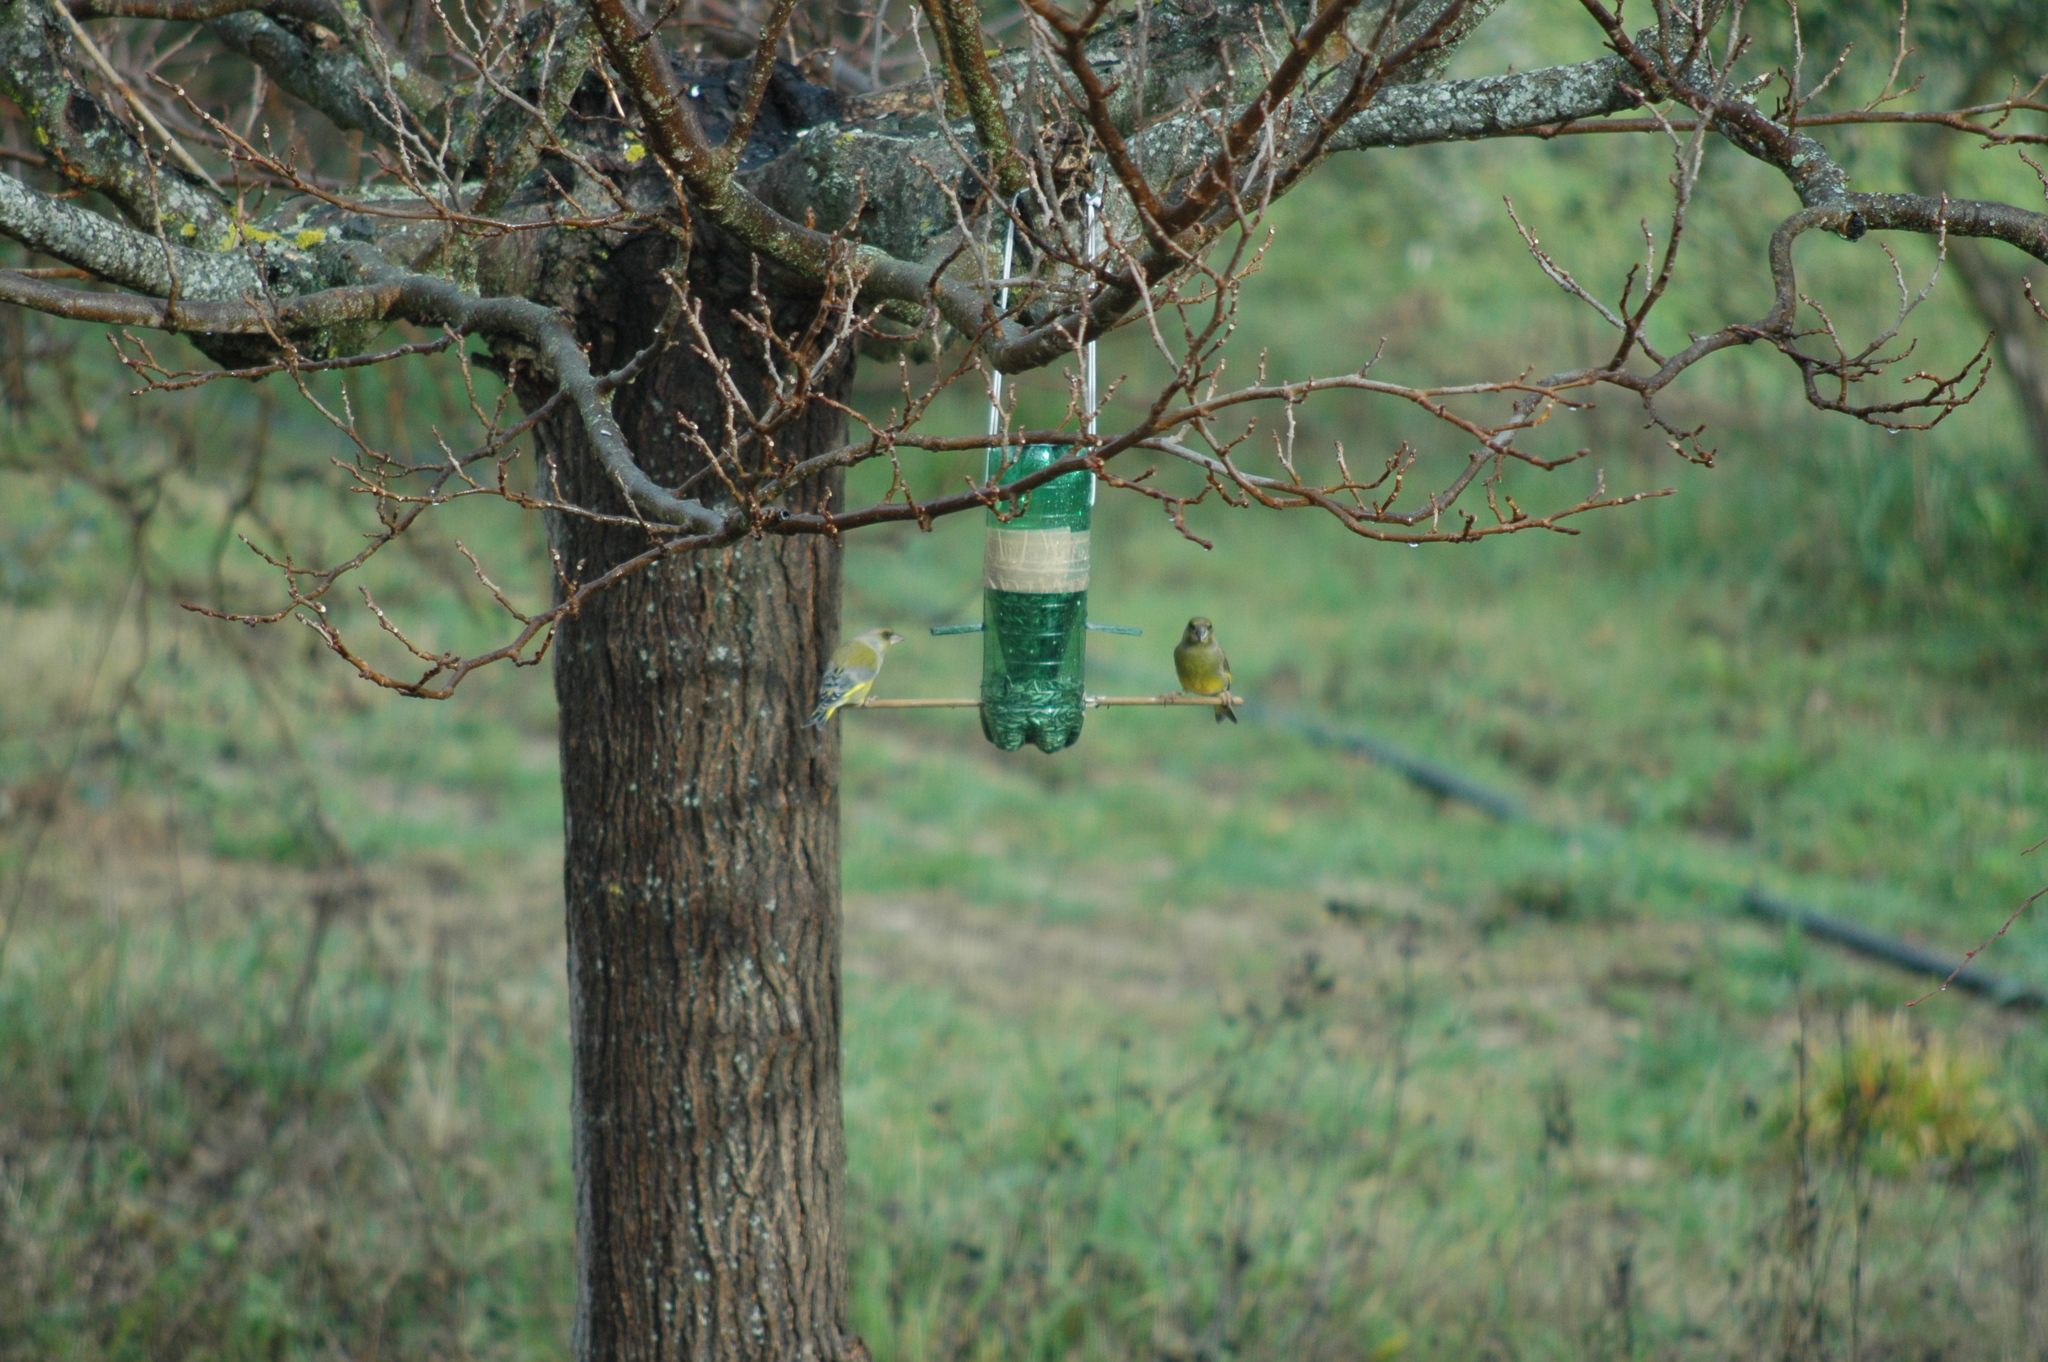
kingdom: Plantae
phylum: Tracheophyta
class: Liliopsida
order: Poales
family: Poaceae
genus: Chloris
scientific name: Chloris chloris
